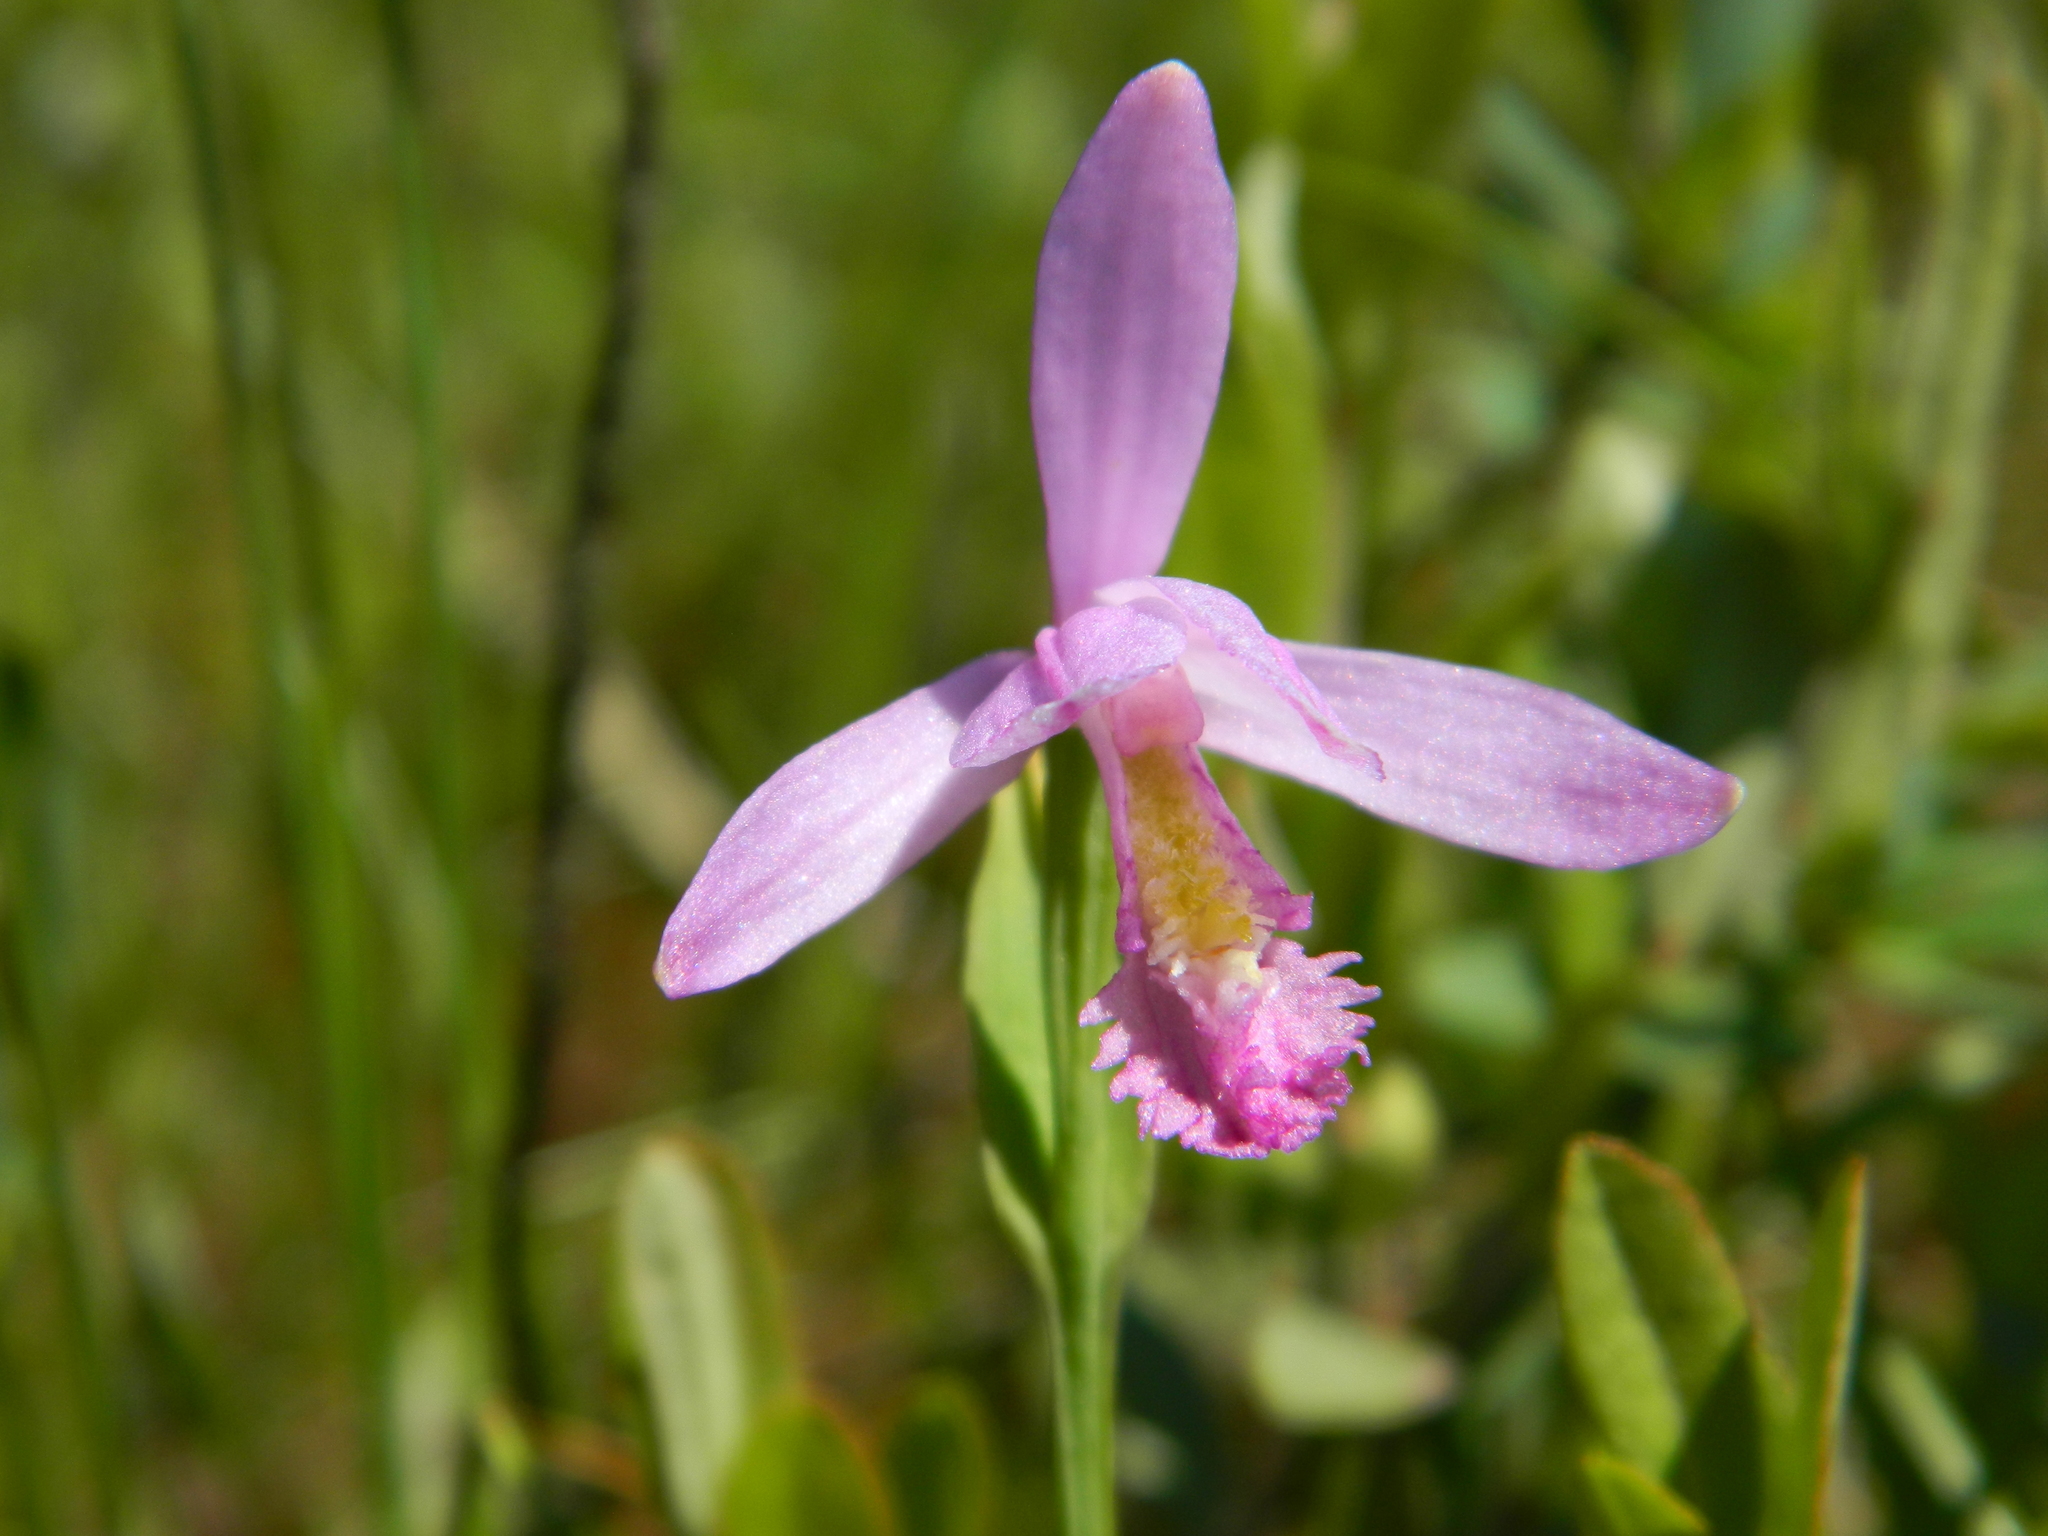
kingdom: Plantae
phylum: Tracheophyta
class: Liliopsida
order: Asparagales
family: Orchidaceae
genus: Pogonia
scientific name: Pogonia ophioglossoides
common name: Rose pogonia
